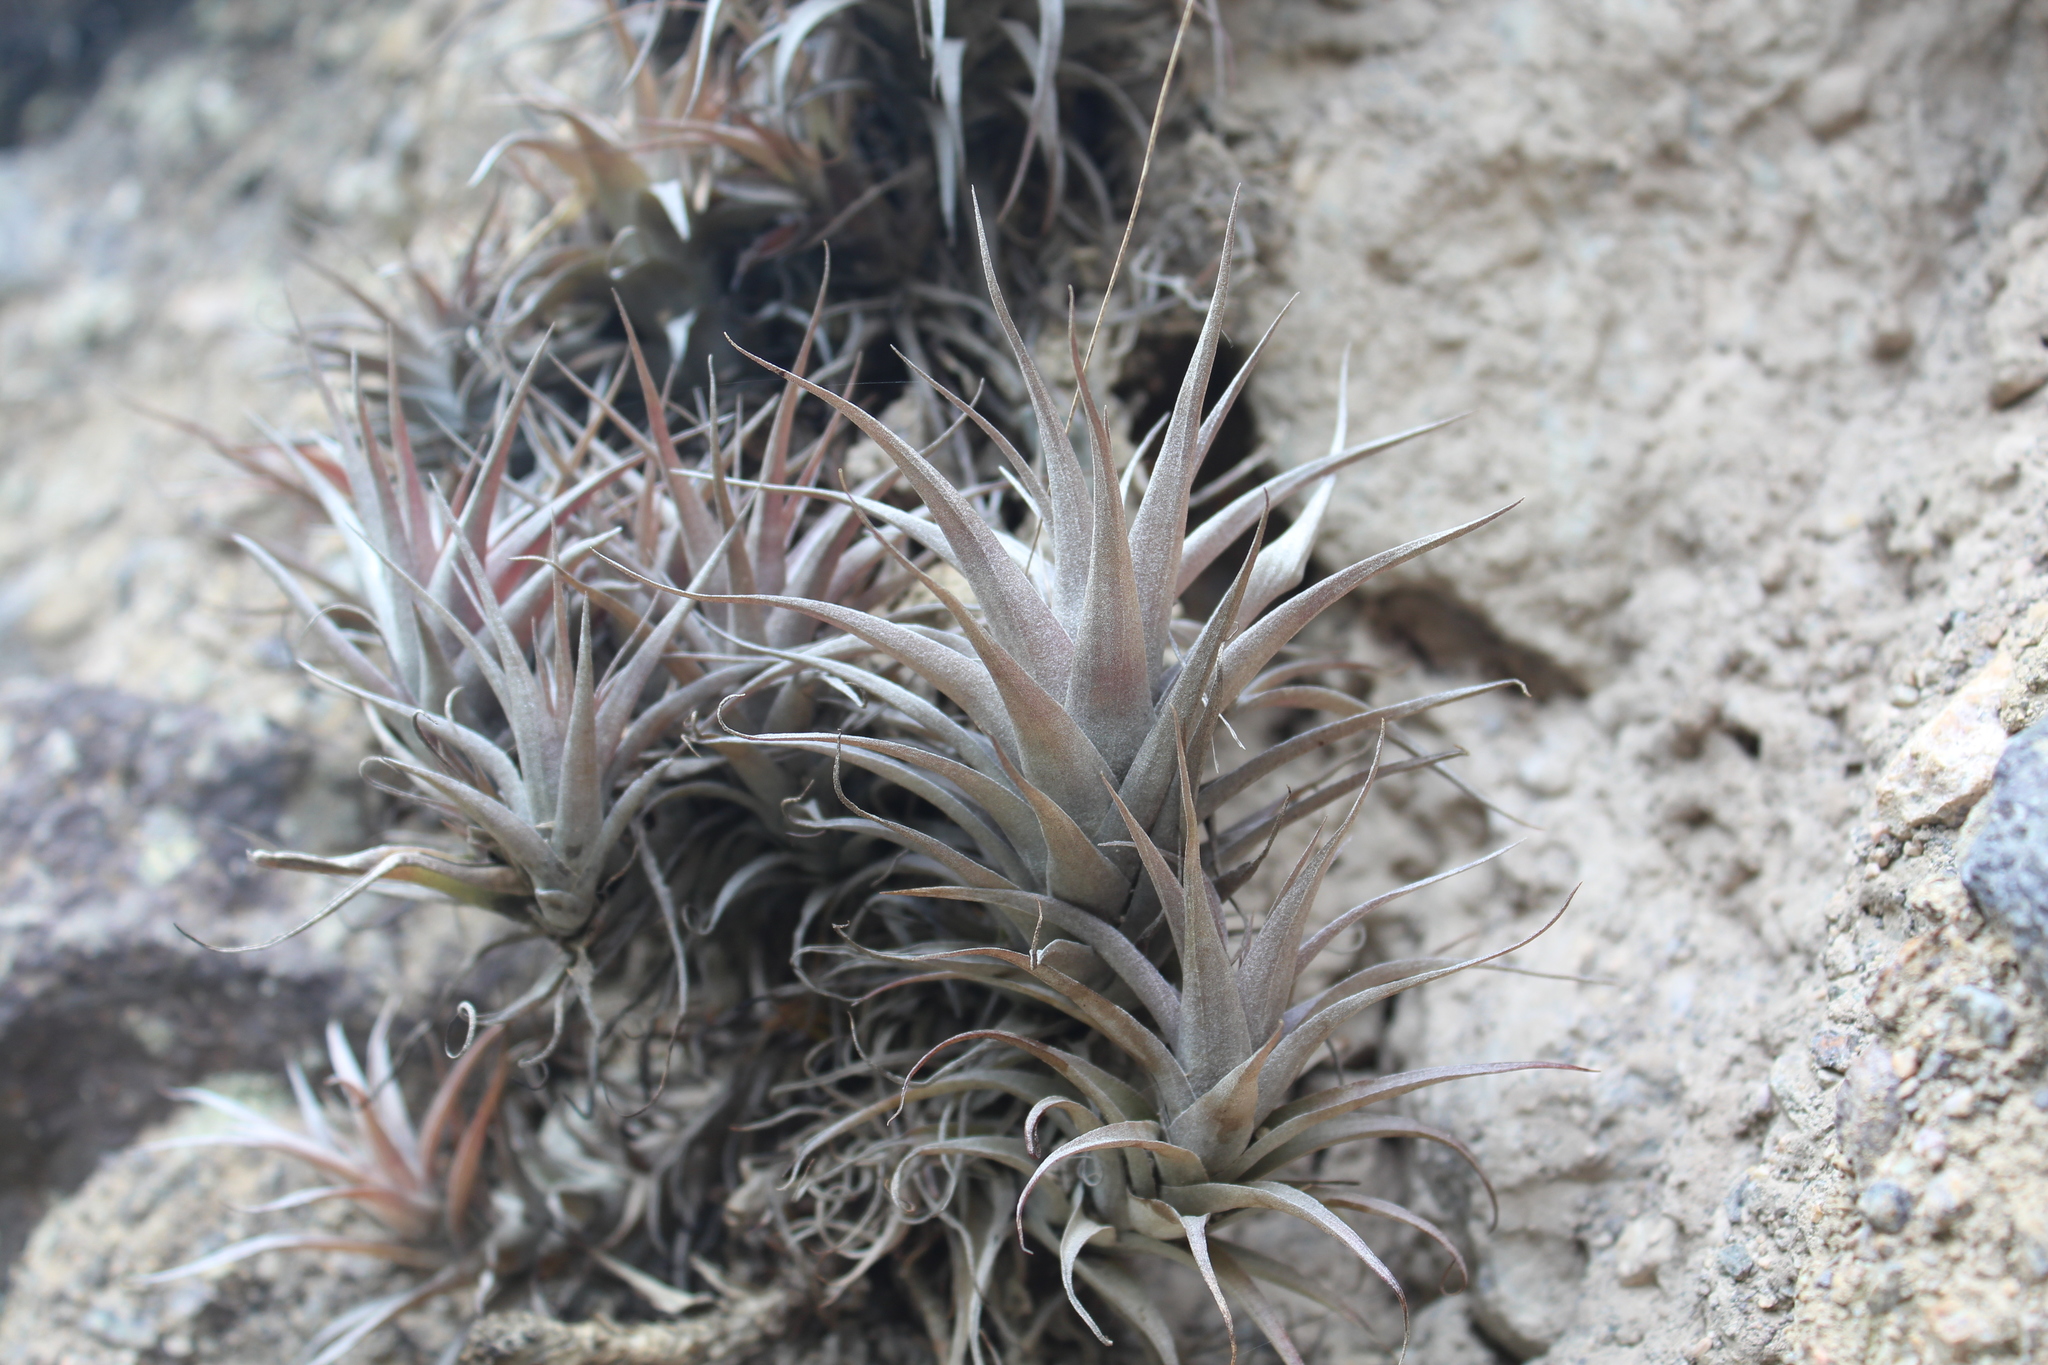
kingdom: Plantae
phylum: Tracheophyta
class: Liliopsida
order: Poales
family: Bromeliaceae
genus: Tillandsia
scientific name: Tillandsia nana
